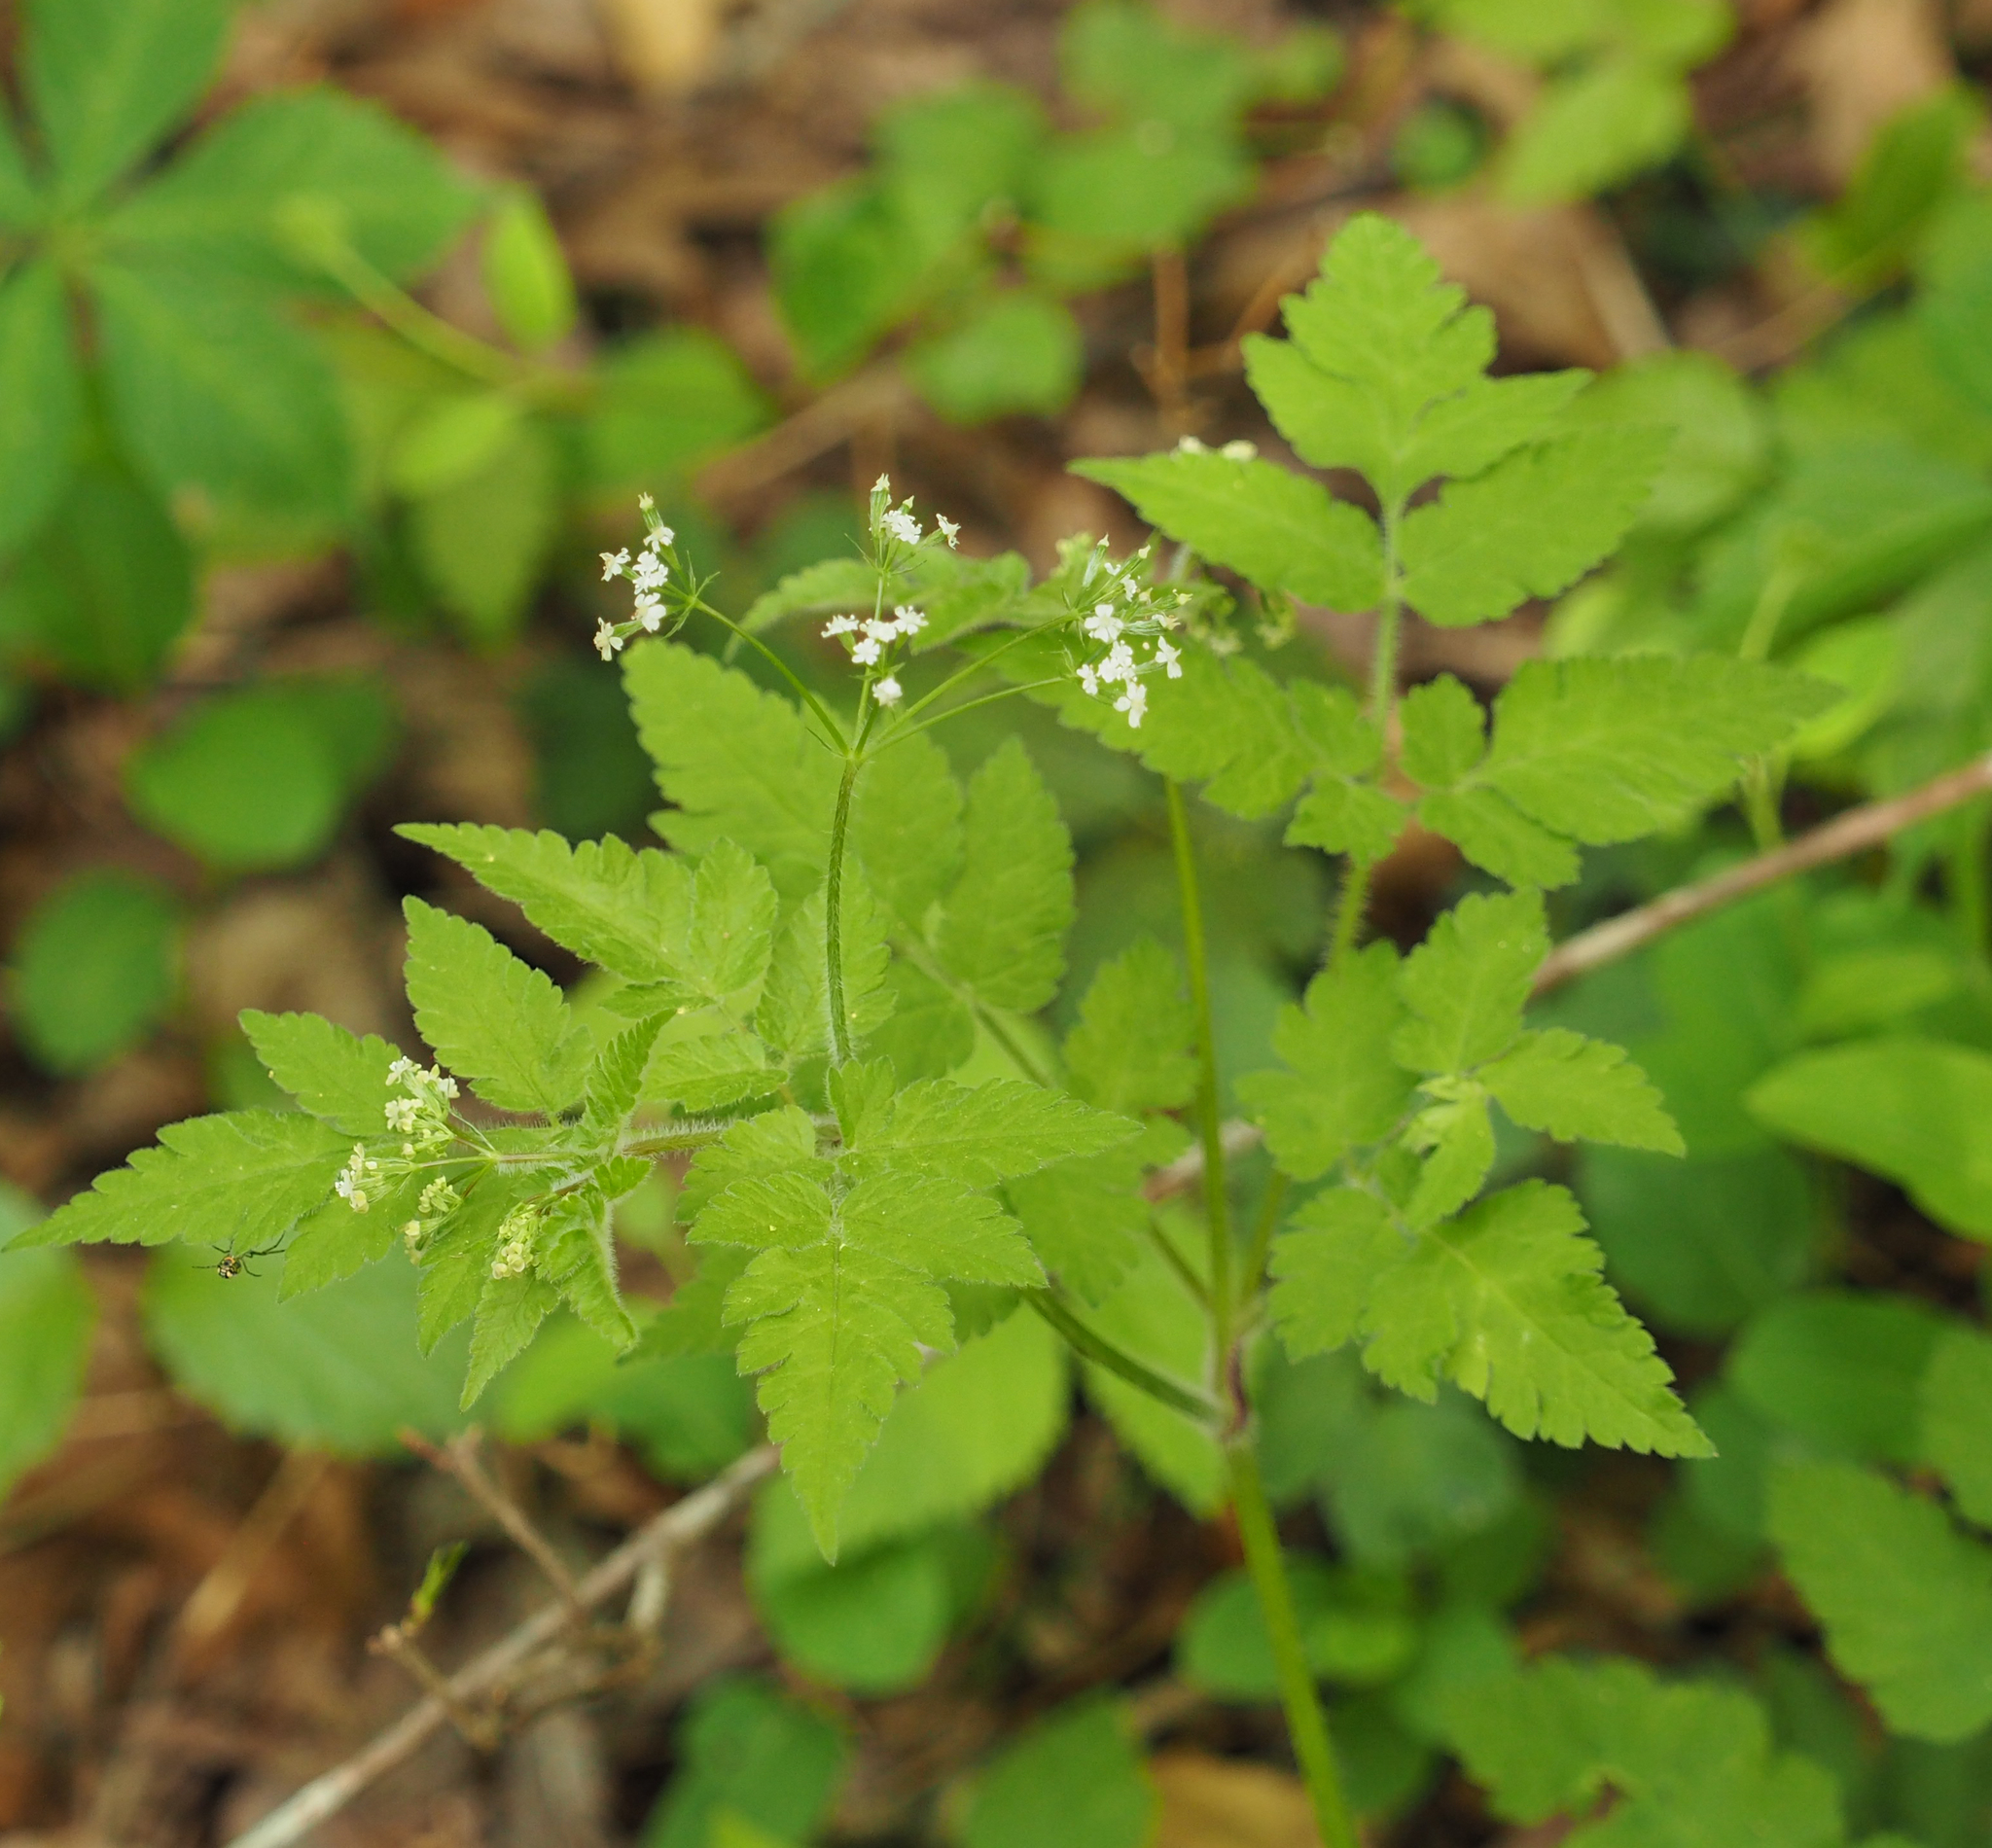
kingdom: Plantae
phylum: Tracheophyta
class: Magnoliopsida
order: Apiales
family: Apiaceae
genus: Osmorhiza
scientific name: Osmorhiza claytonii
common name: Hairy sweet cicely
